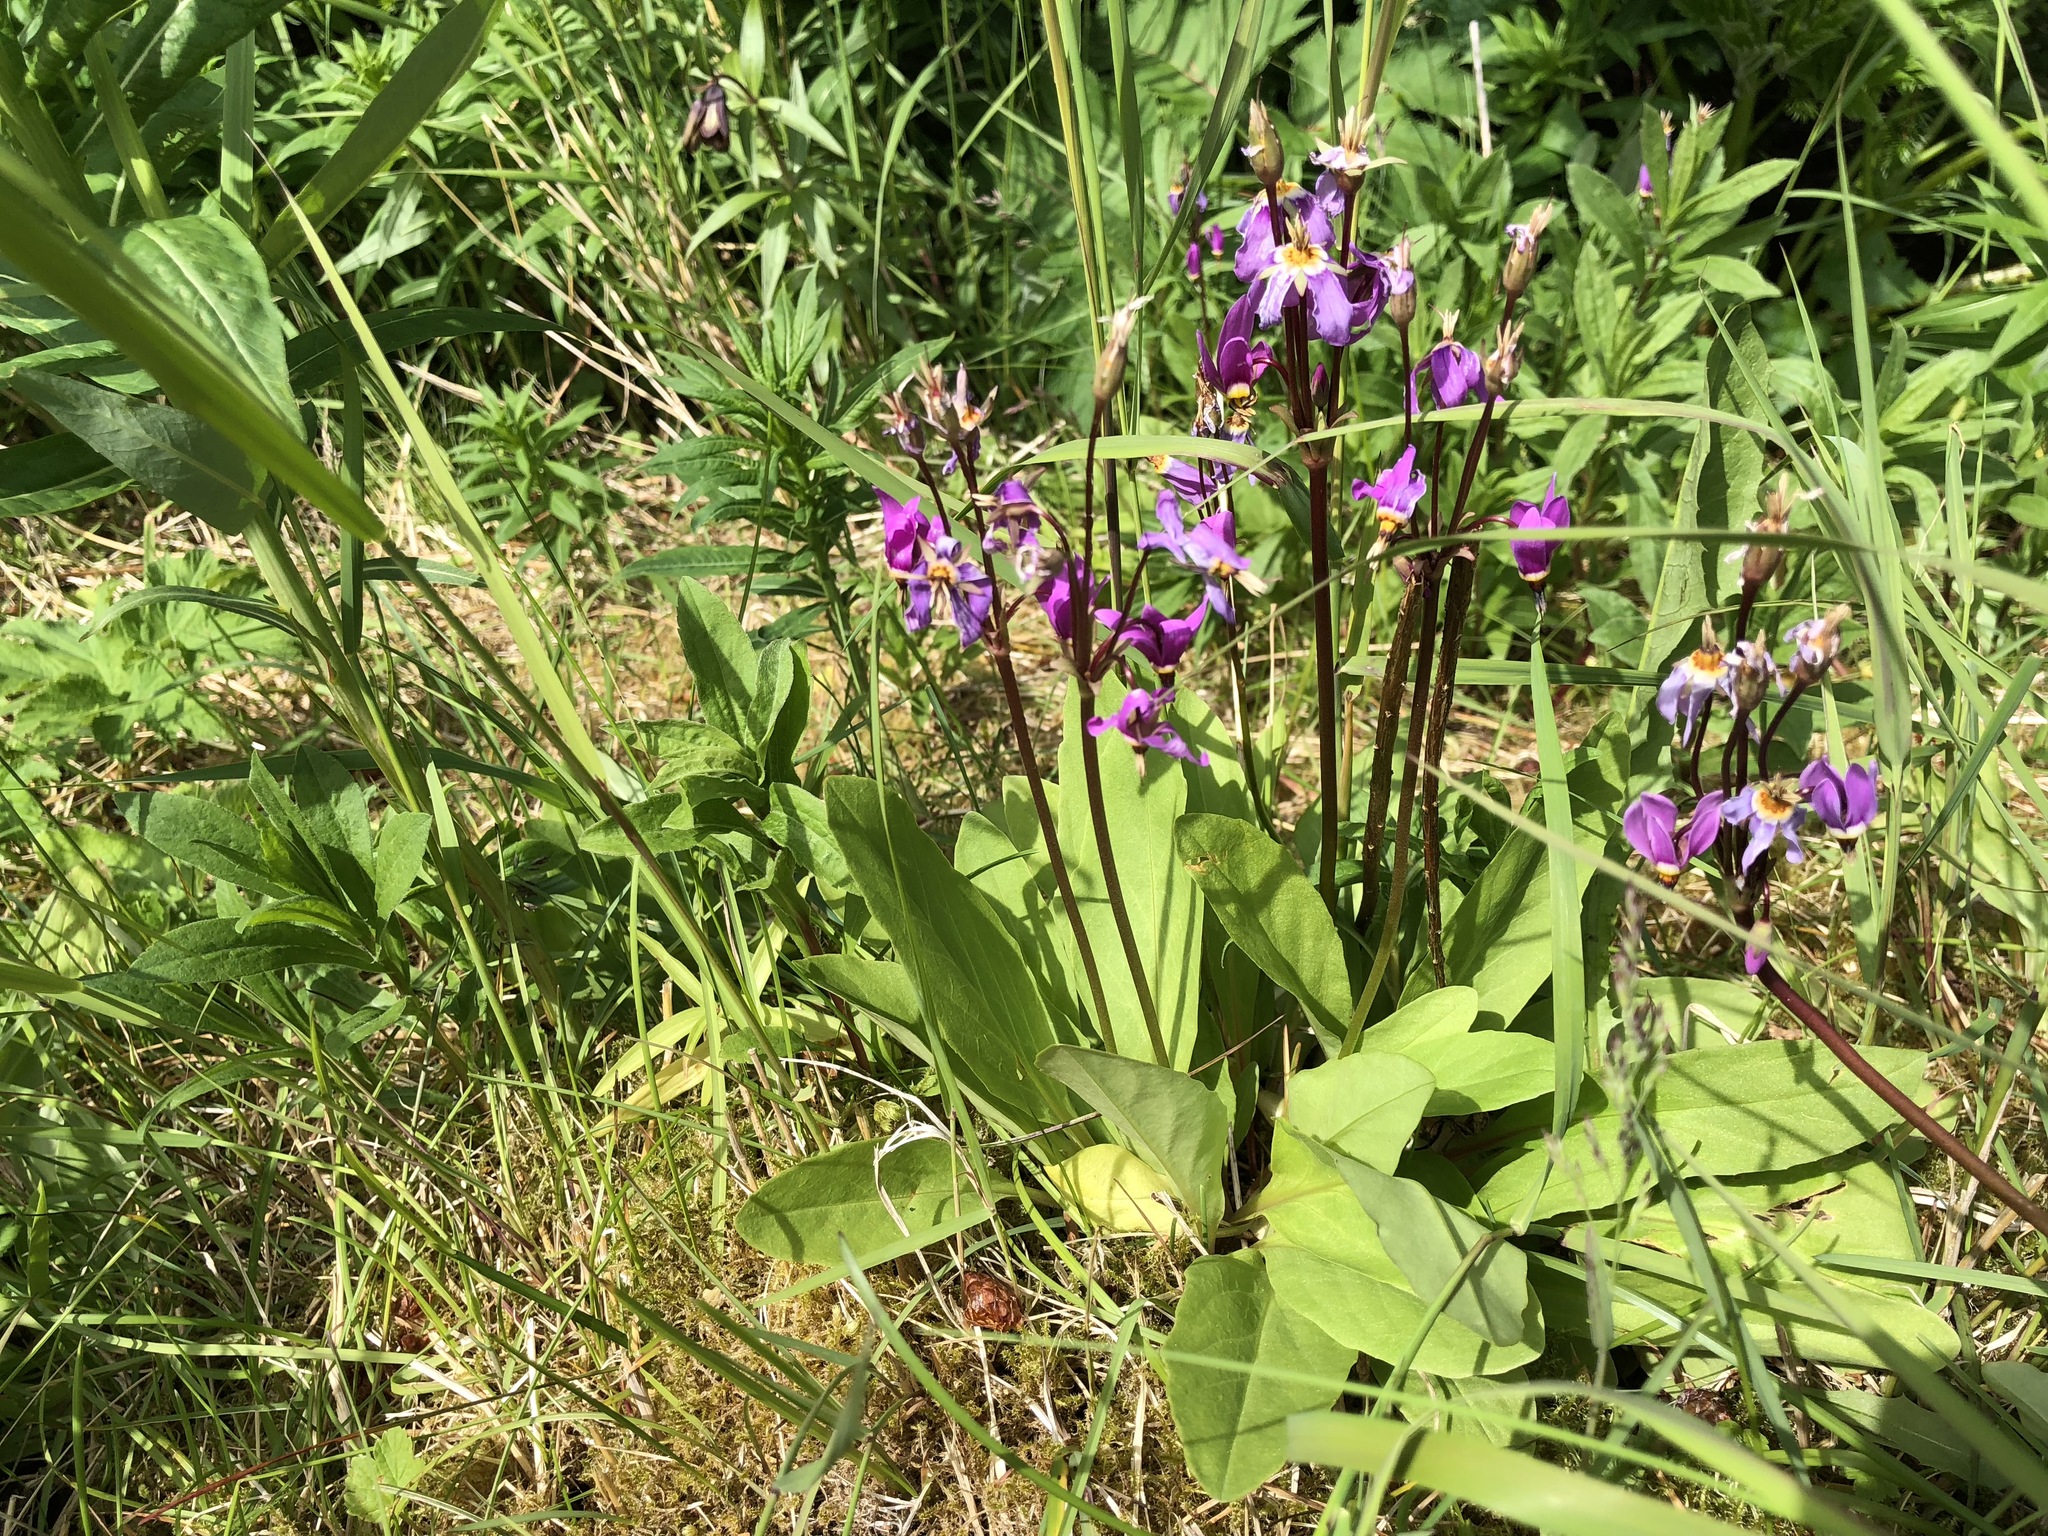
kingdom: Plantae
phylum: Tracheophyta
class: Magnoliopsida
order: Ericales
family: Primulaceae
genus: Dodecatheon
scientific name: Dodecatheon pulchellum
